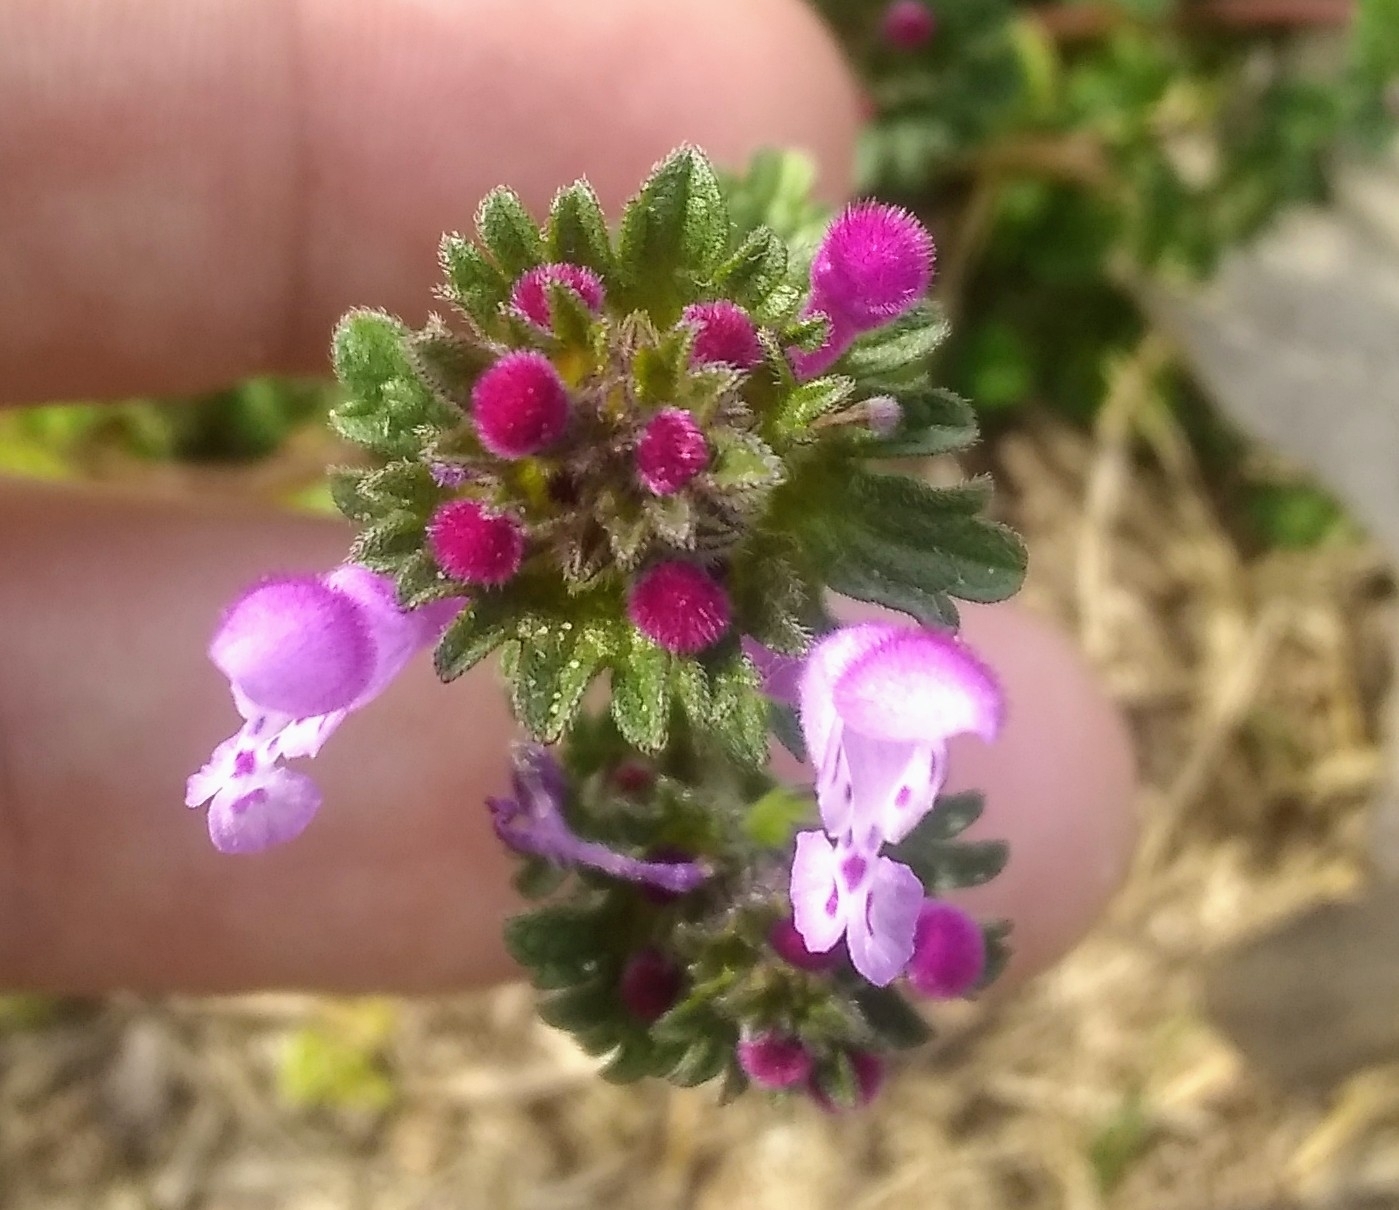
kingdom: Plantae
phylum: Tracheophyta
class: Magnoliopsida
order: Lamiales
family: Lamiaceae
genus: Lamium
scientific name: Lamium amplexicaule
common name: Henbit dead-nettle
